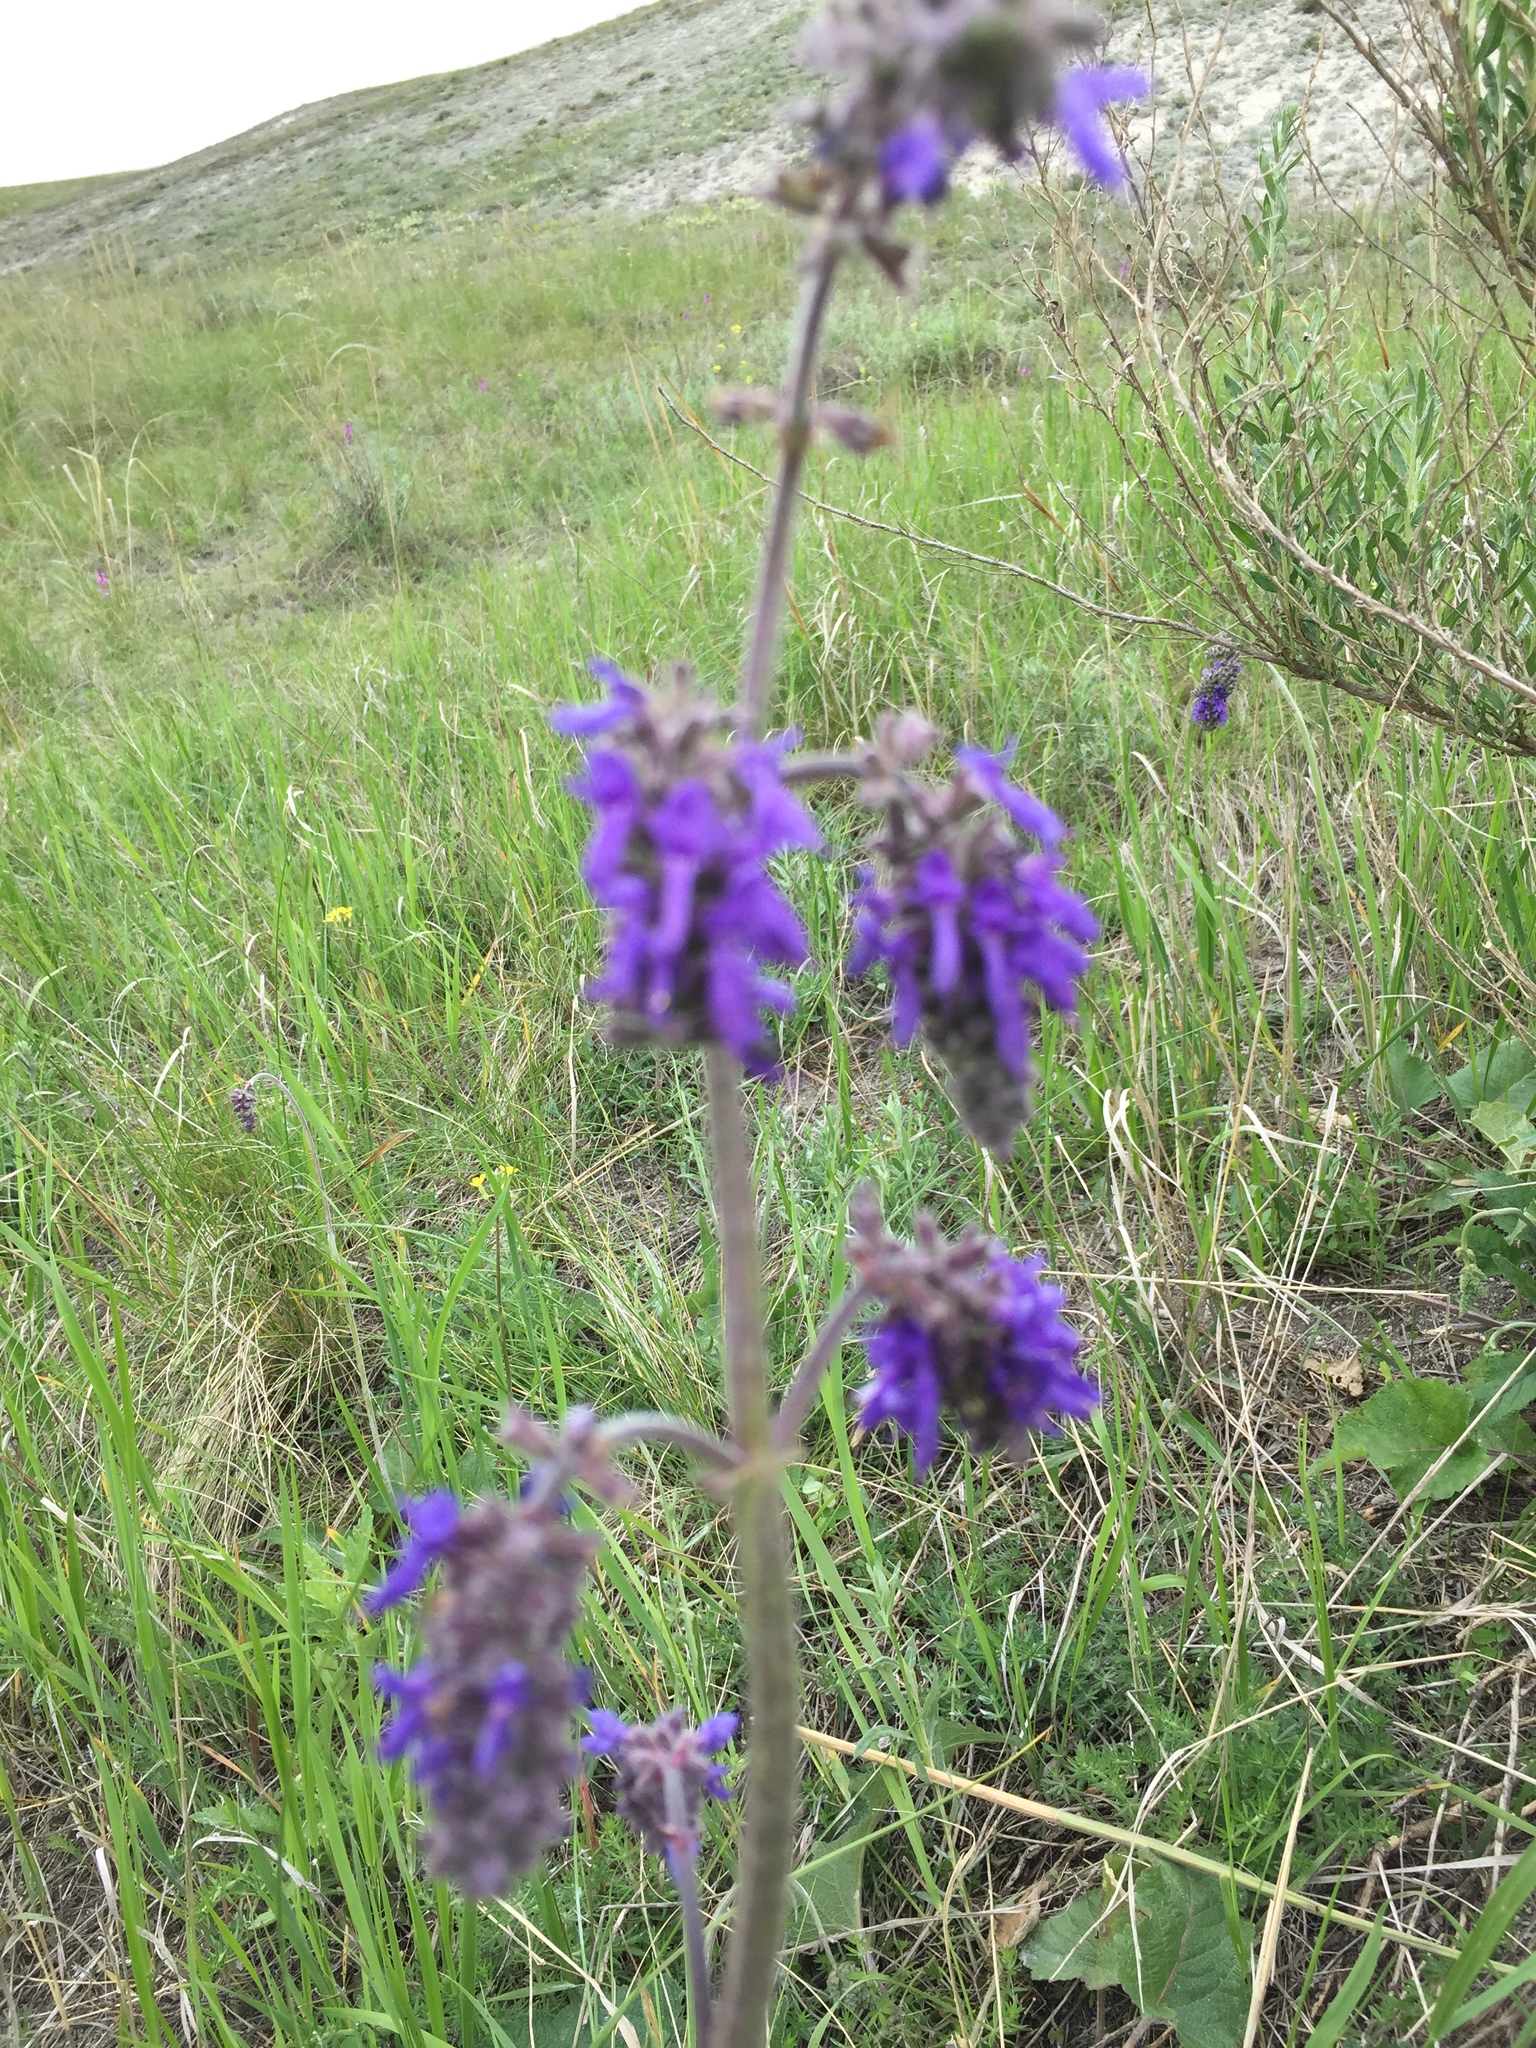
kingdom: Plantae
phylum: Tracheophyta
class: Magnoliopsida
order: Lamiales
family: Lamiaceae
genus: Salvia
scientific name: Salvia nutans
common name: Nodding sage
